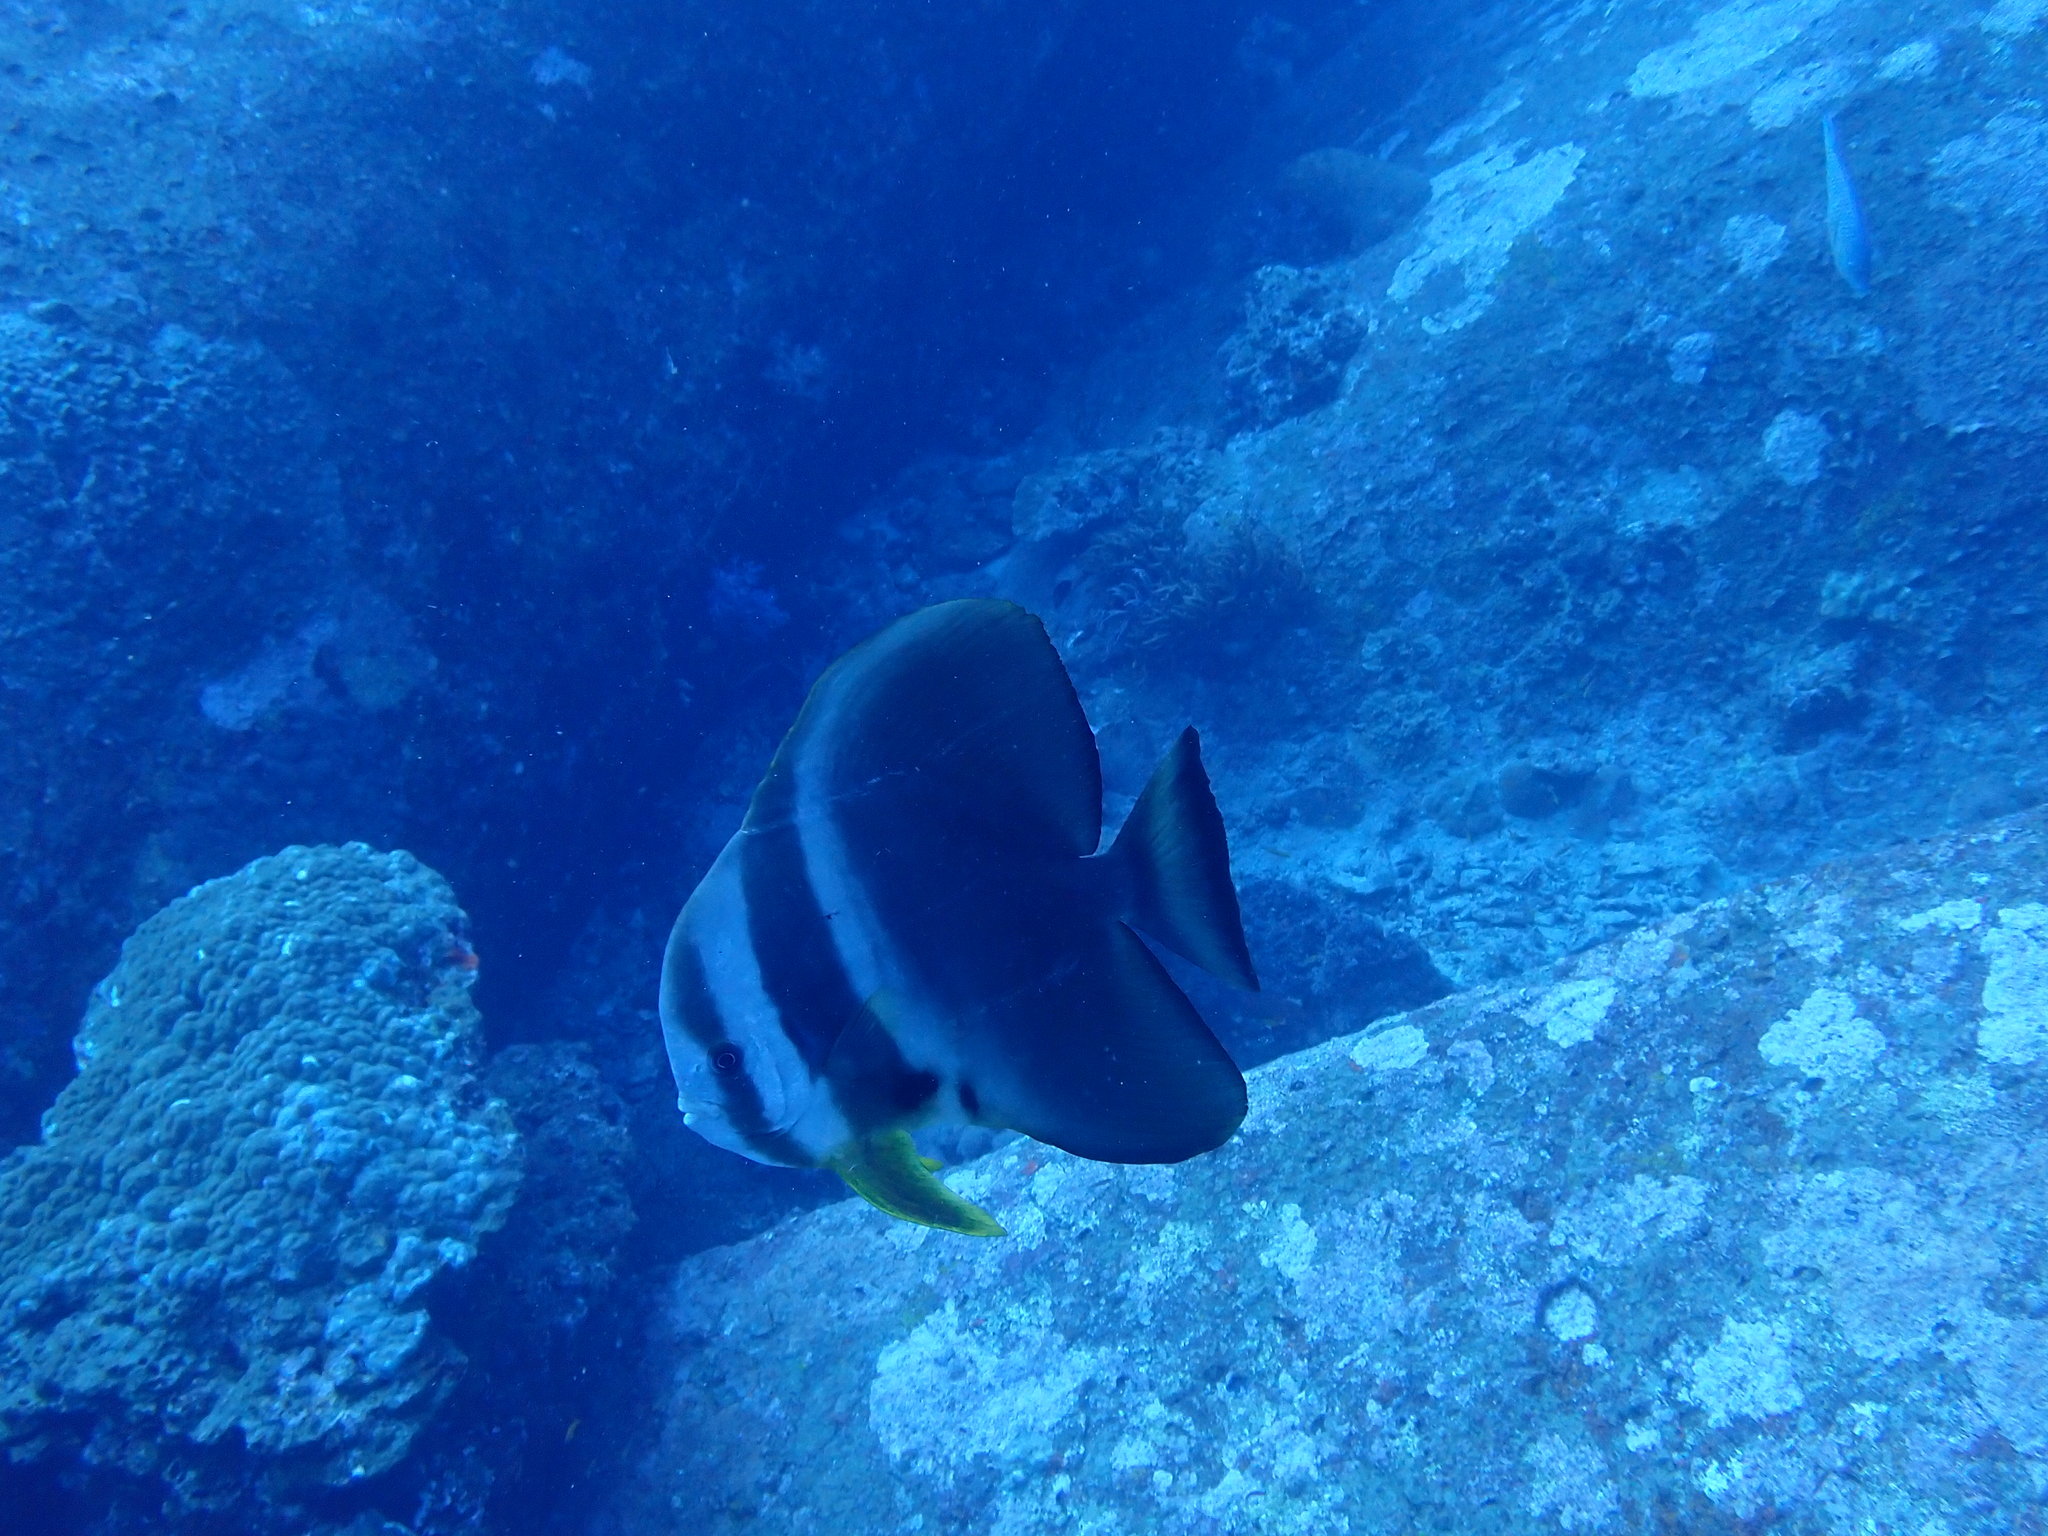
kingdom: Animalia
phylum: Chordata
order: Perciformes
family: Ephippidae
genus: Platax
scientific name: Platax teira
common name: Longfin baitfish
